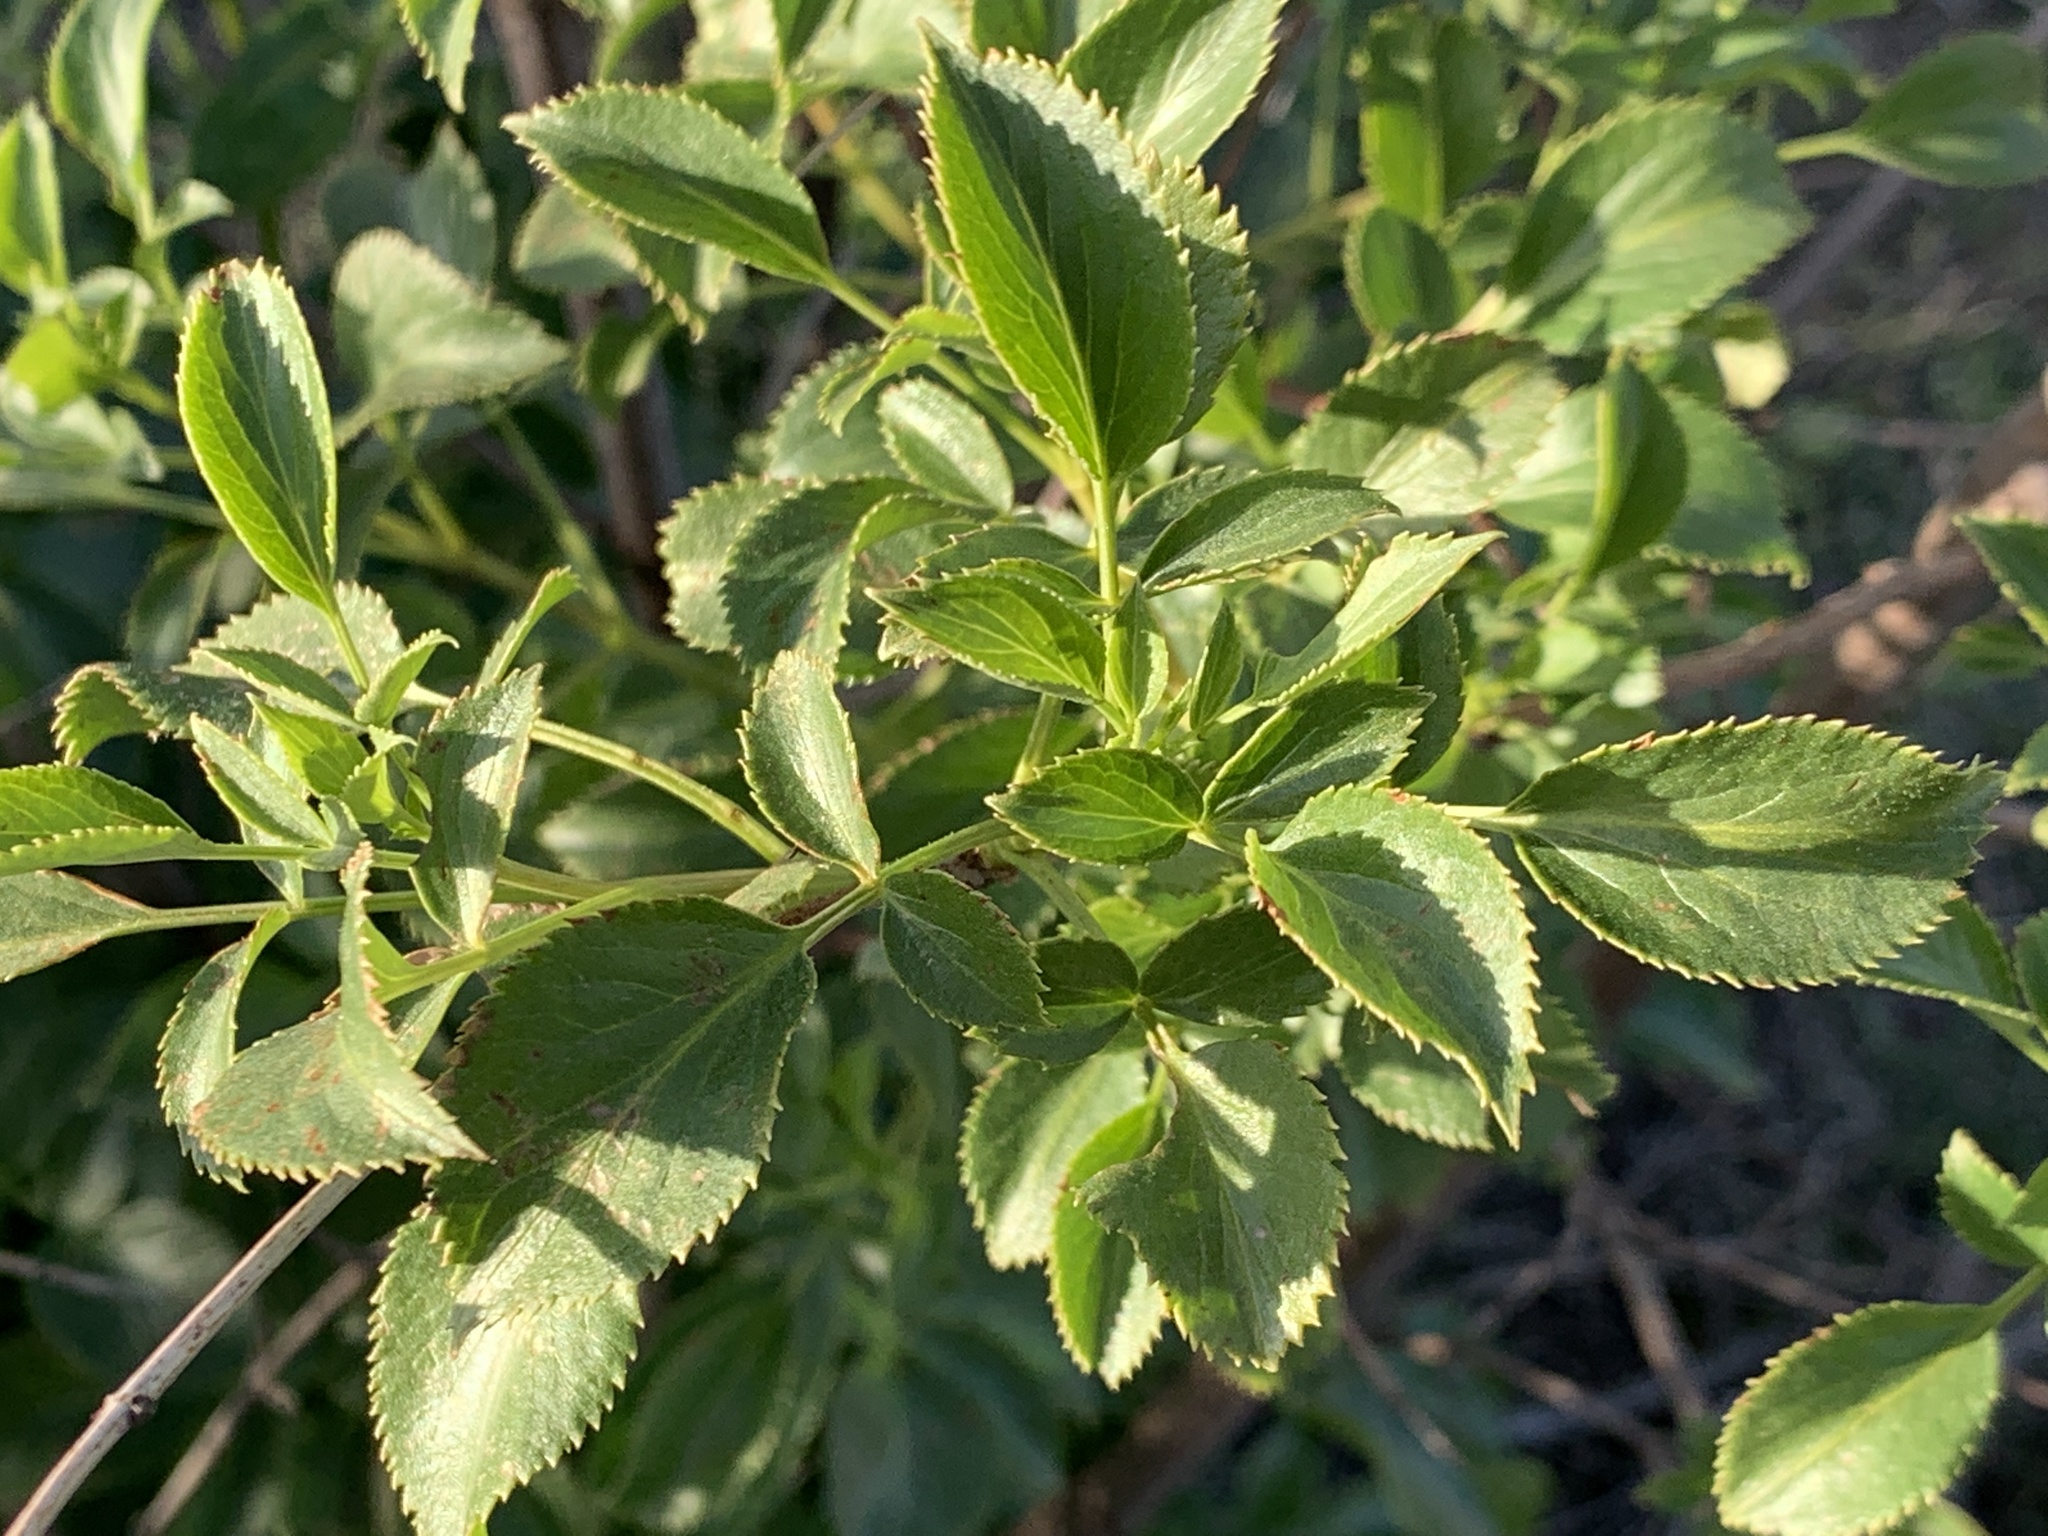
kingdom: Plantae
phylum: Tracheophyta
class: Magnoliopsida
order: Dipsacales
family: Viburnaceae
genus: Sambucus
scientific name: Sambucus cerulea
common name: Blue elder
